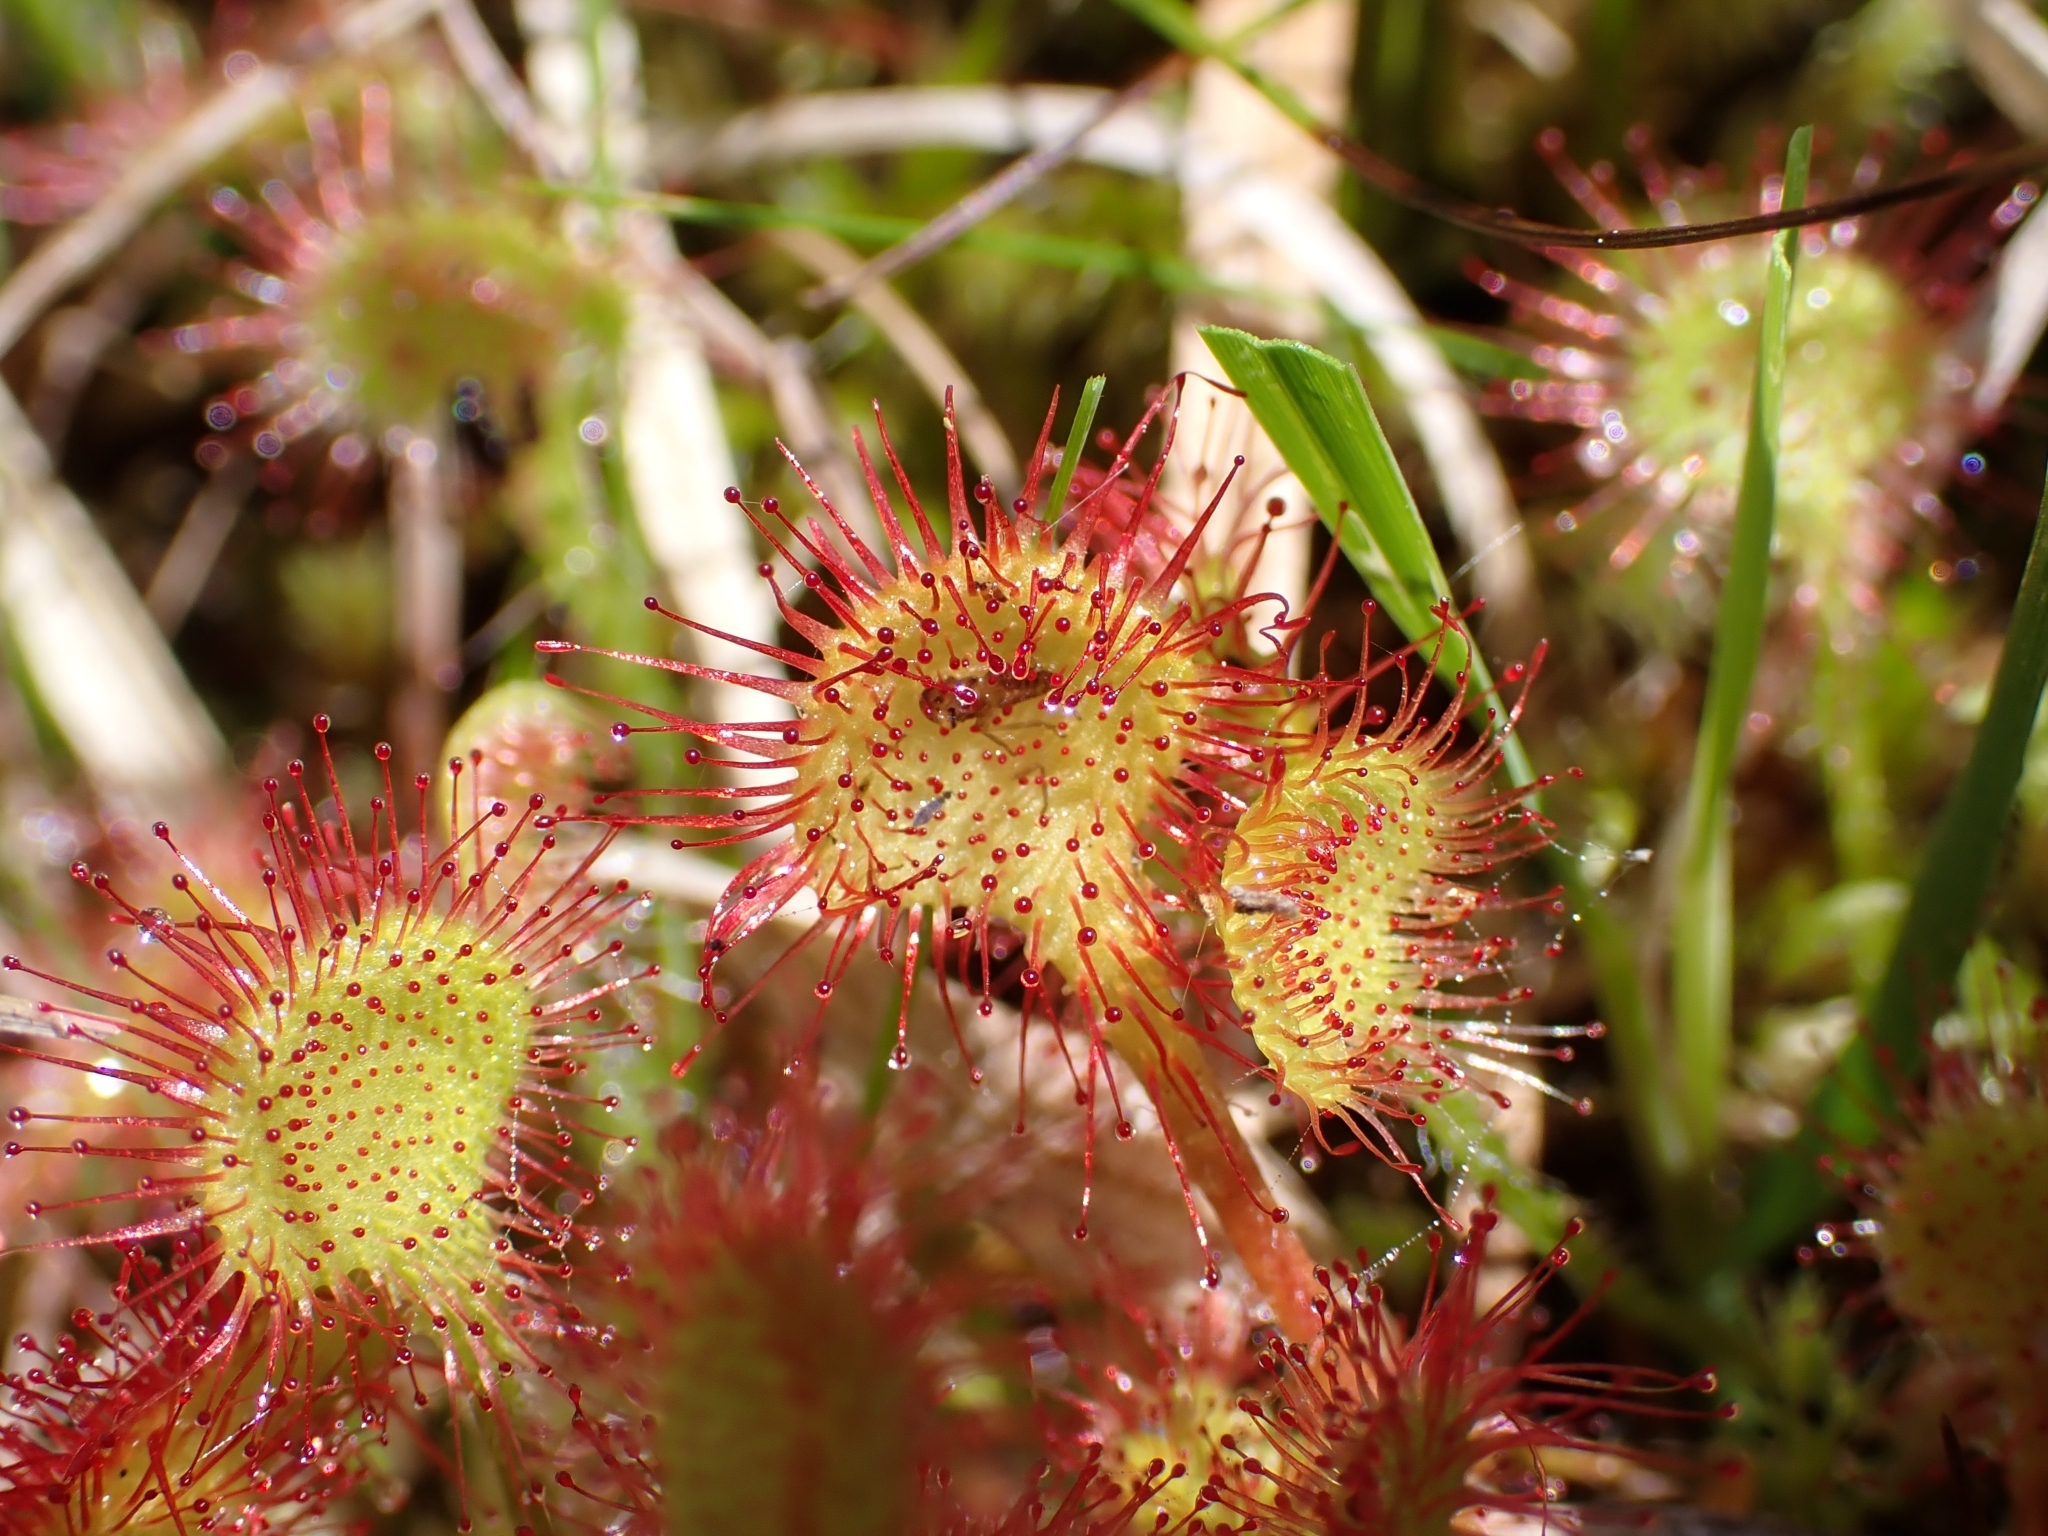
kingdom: Plantae
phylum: Tracheophyta
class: Magnoliopsida
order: Caryophyllales
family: Droseraceae
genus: Drosera
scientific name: Drosera rotundifolia
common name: Round-leaved sundew
